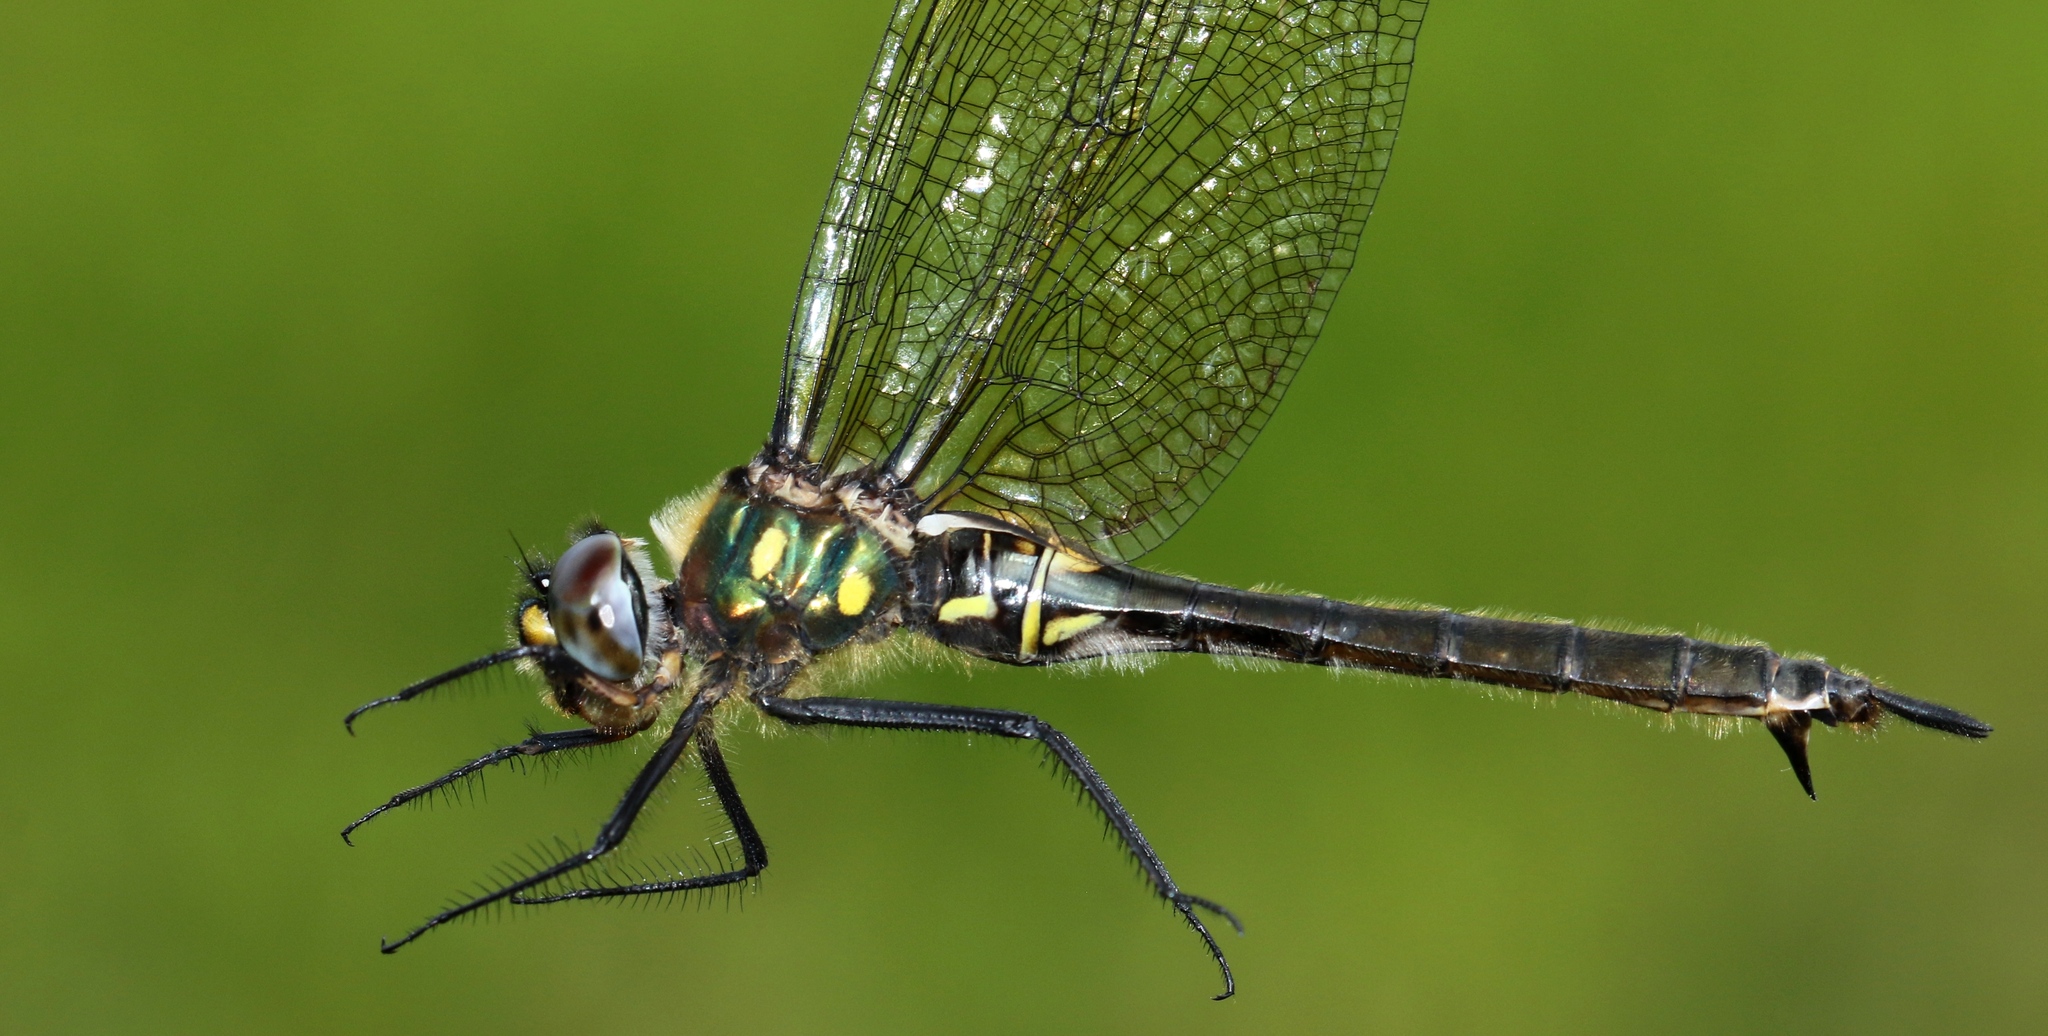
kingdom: Animalia
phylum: Arthropoda
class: Insecta
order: Odonata
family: Corduliidae
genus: Somatochlora
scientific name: Somatochlora minor
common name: Ocellated emerald
